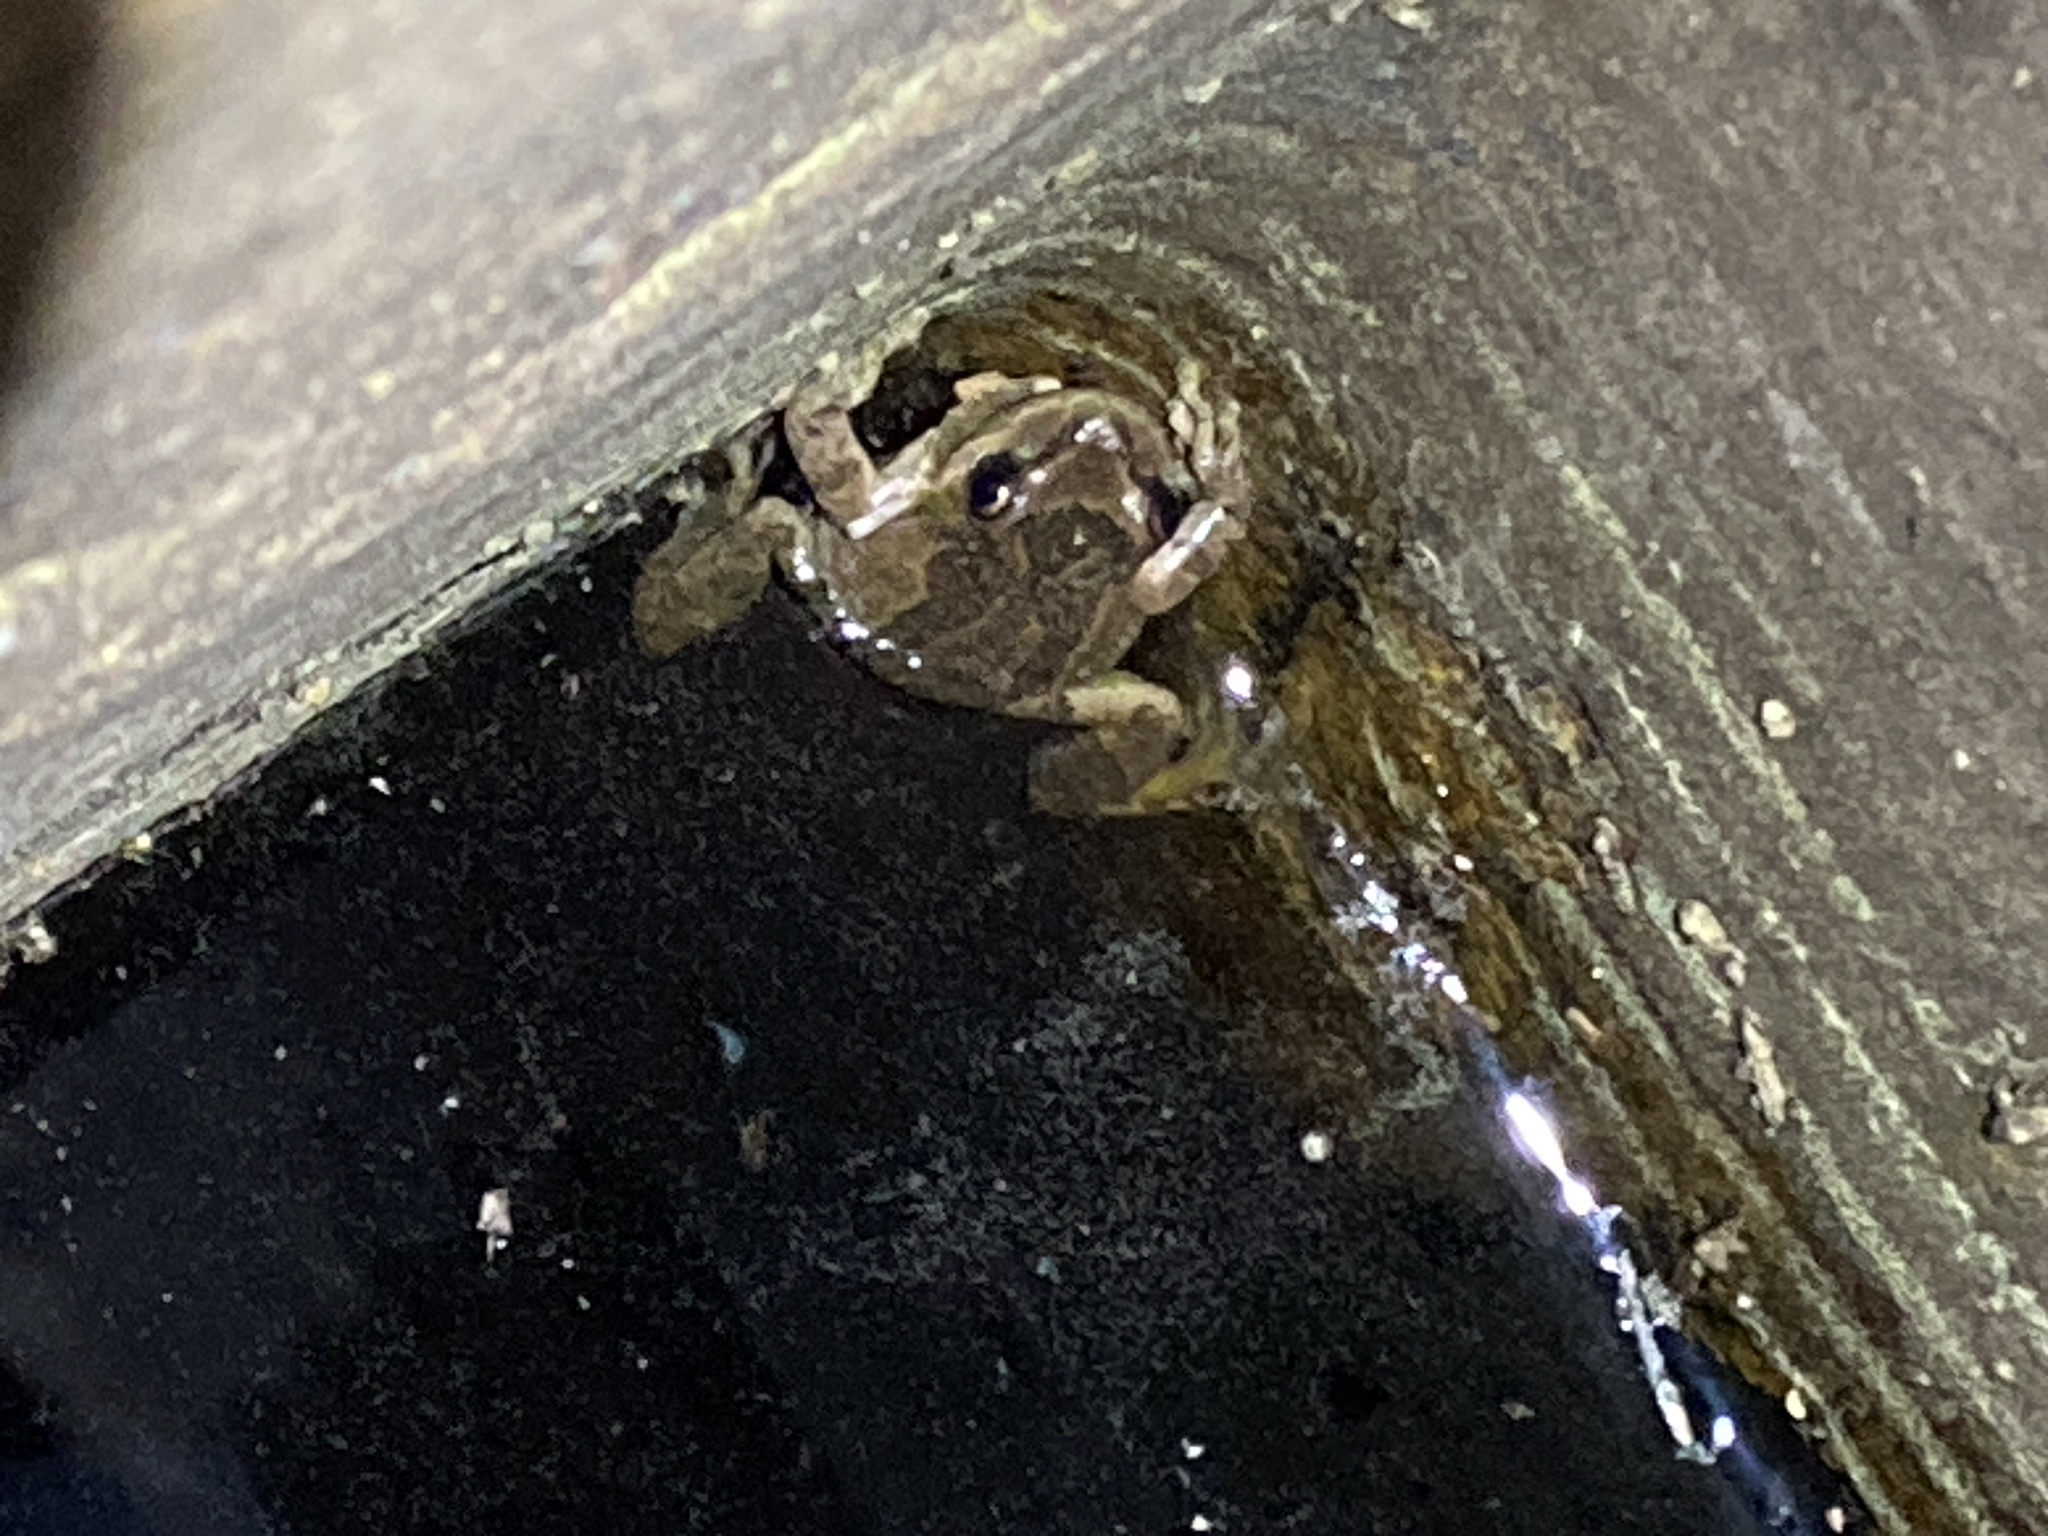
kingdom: Animalia
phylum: Chordata
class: Amphibia
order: Anura
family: Hylidae
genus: Pseudacris
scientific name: Pseudacris regilla
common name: Pacific chorus frog
